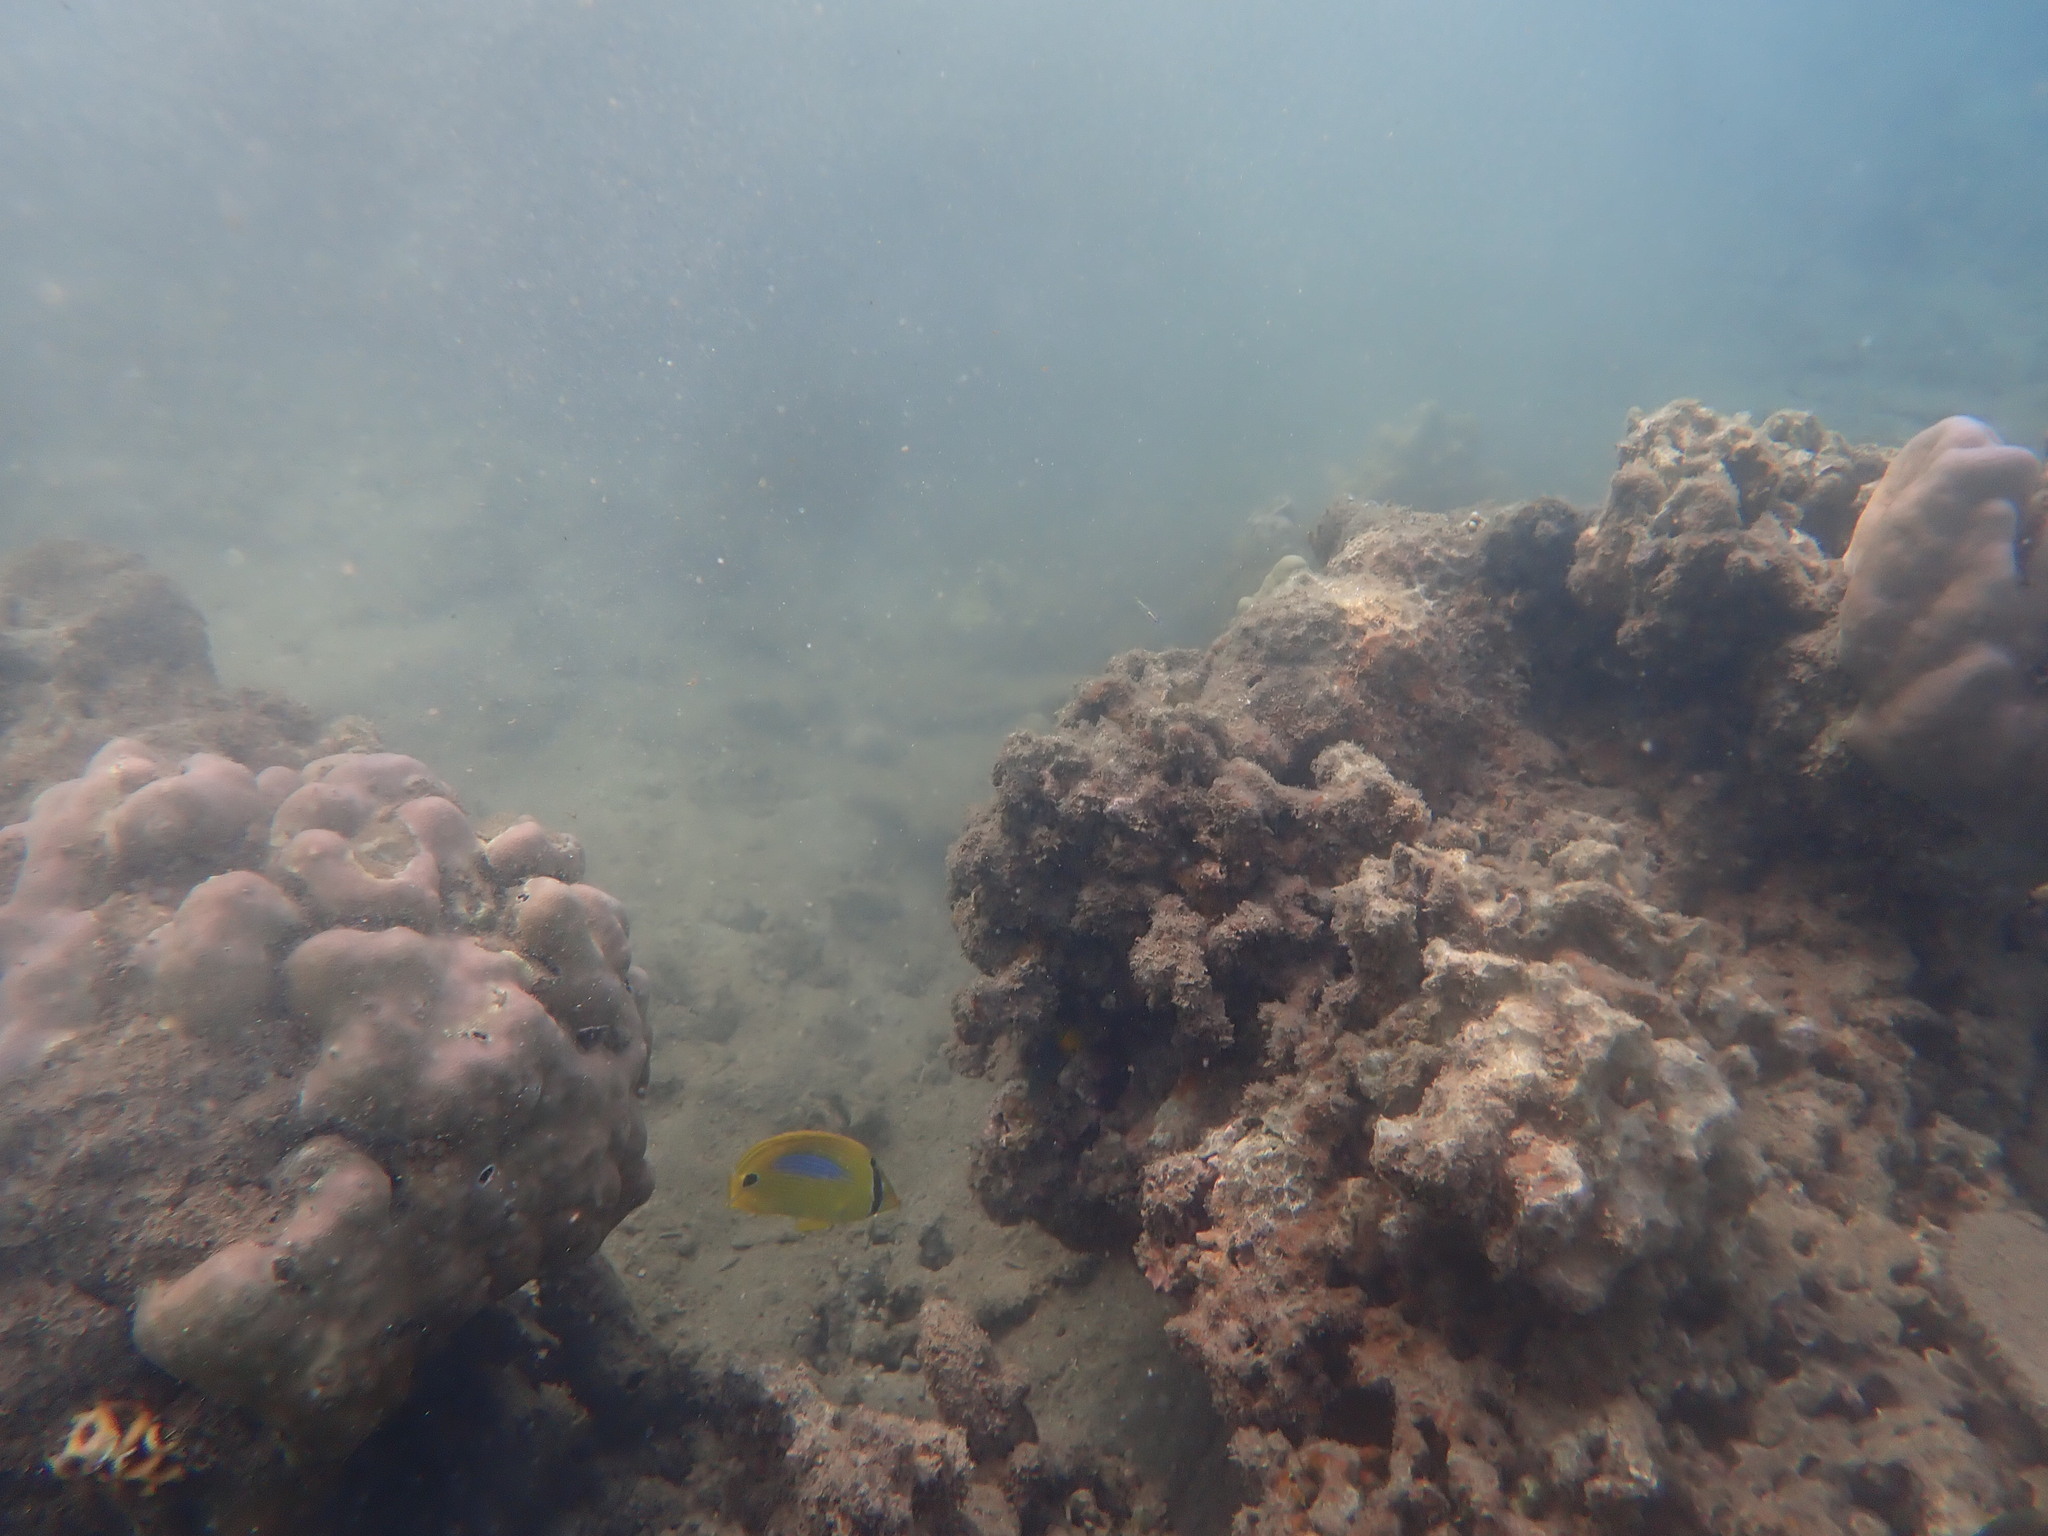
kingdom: Animalia
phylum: Chordata
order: Perciformes
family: Chaetodontidae
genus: Chaetodon
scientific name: Chaetodon plebeius
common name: Bluespot butterflyfish
